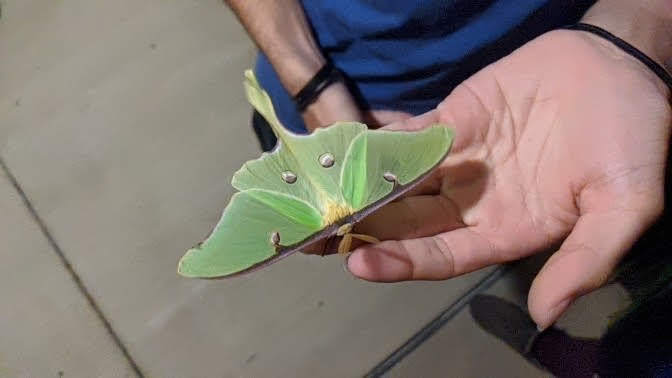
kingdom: Animalia
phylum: Arthropoda
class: Insecta
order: Lepidoptera
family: Saturniidae
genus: Actias
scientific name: Actias luna
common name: Luna moth
